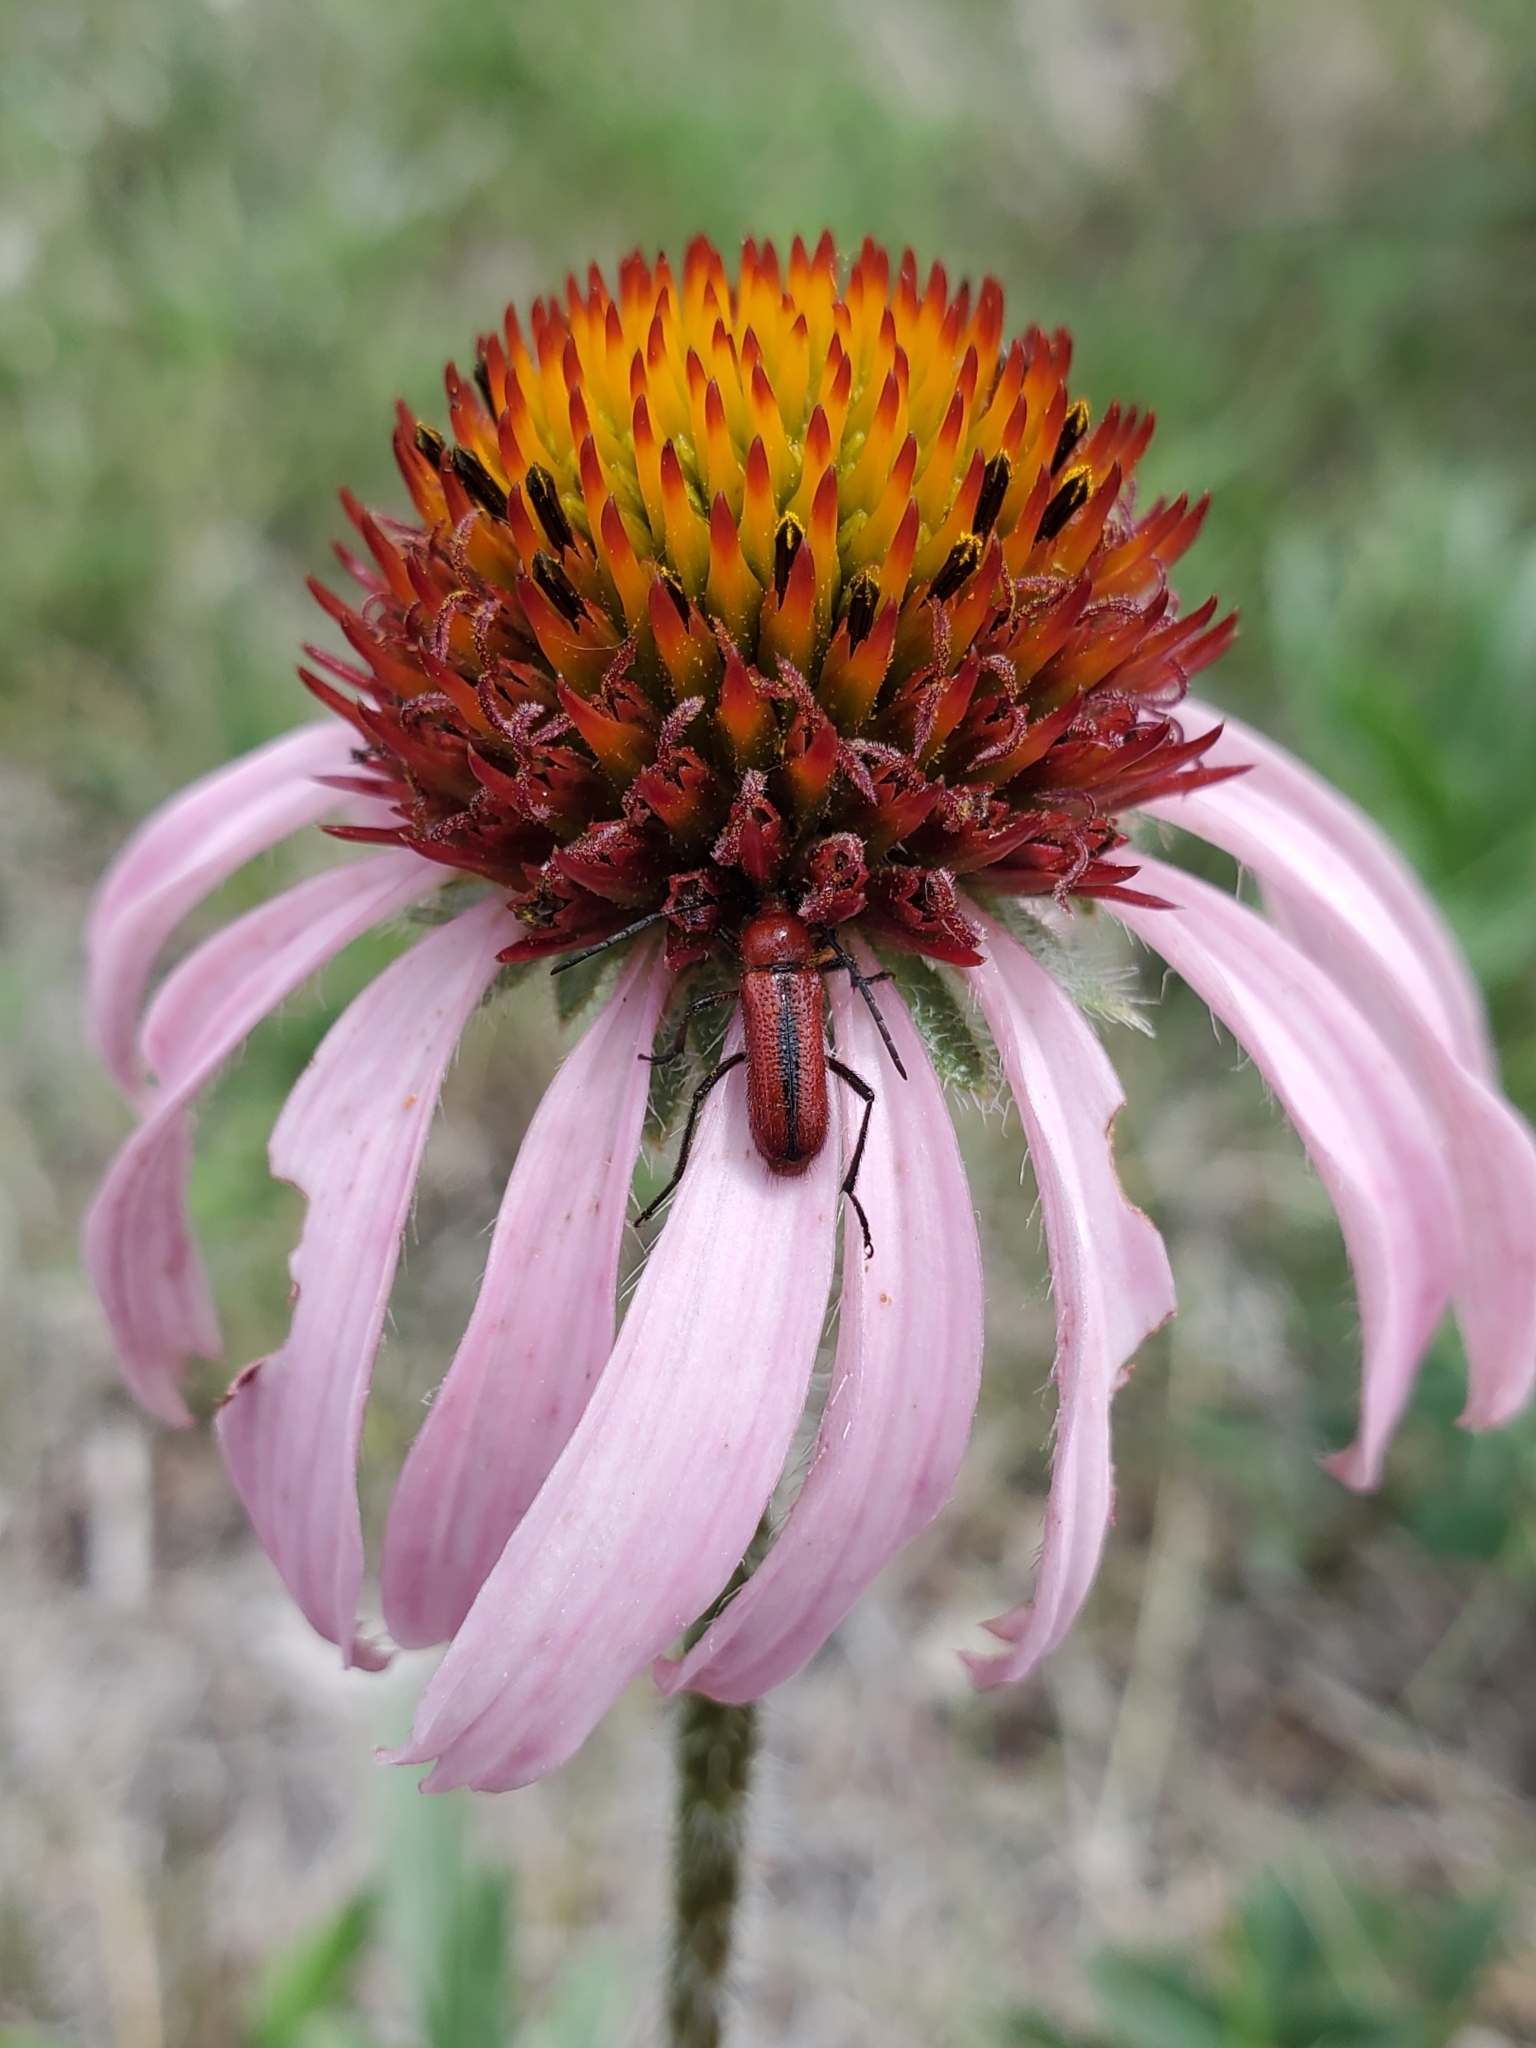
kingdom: Animalia
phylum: Arthropoda
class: Insecta
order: Coleoptera
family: Cerambycidae
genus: Batyle
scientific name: Batyle suturalis
